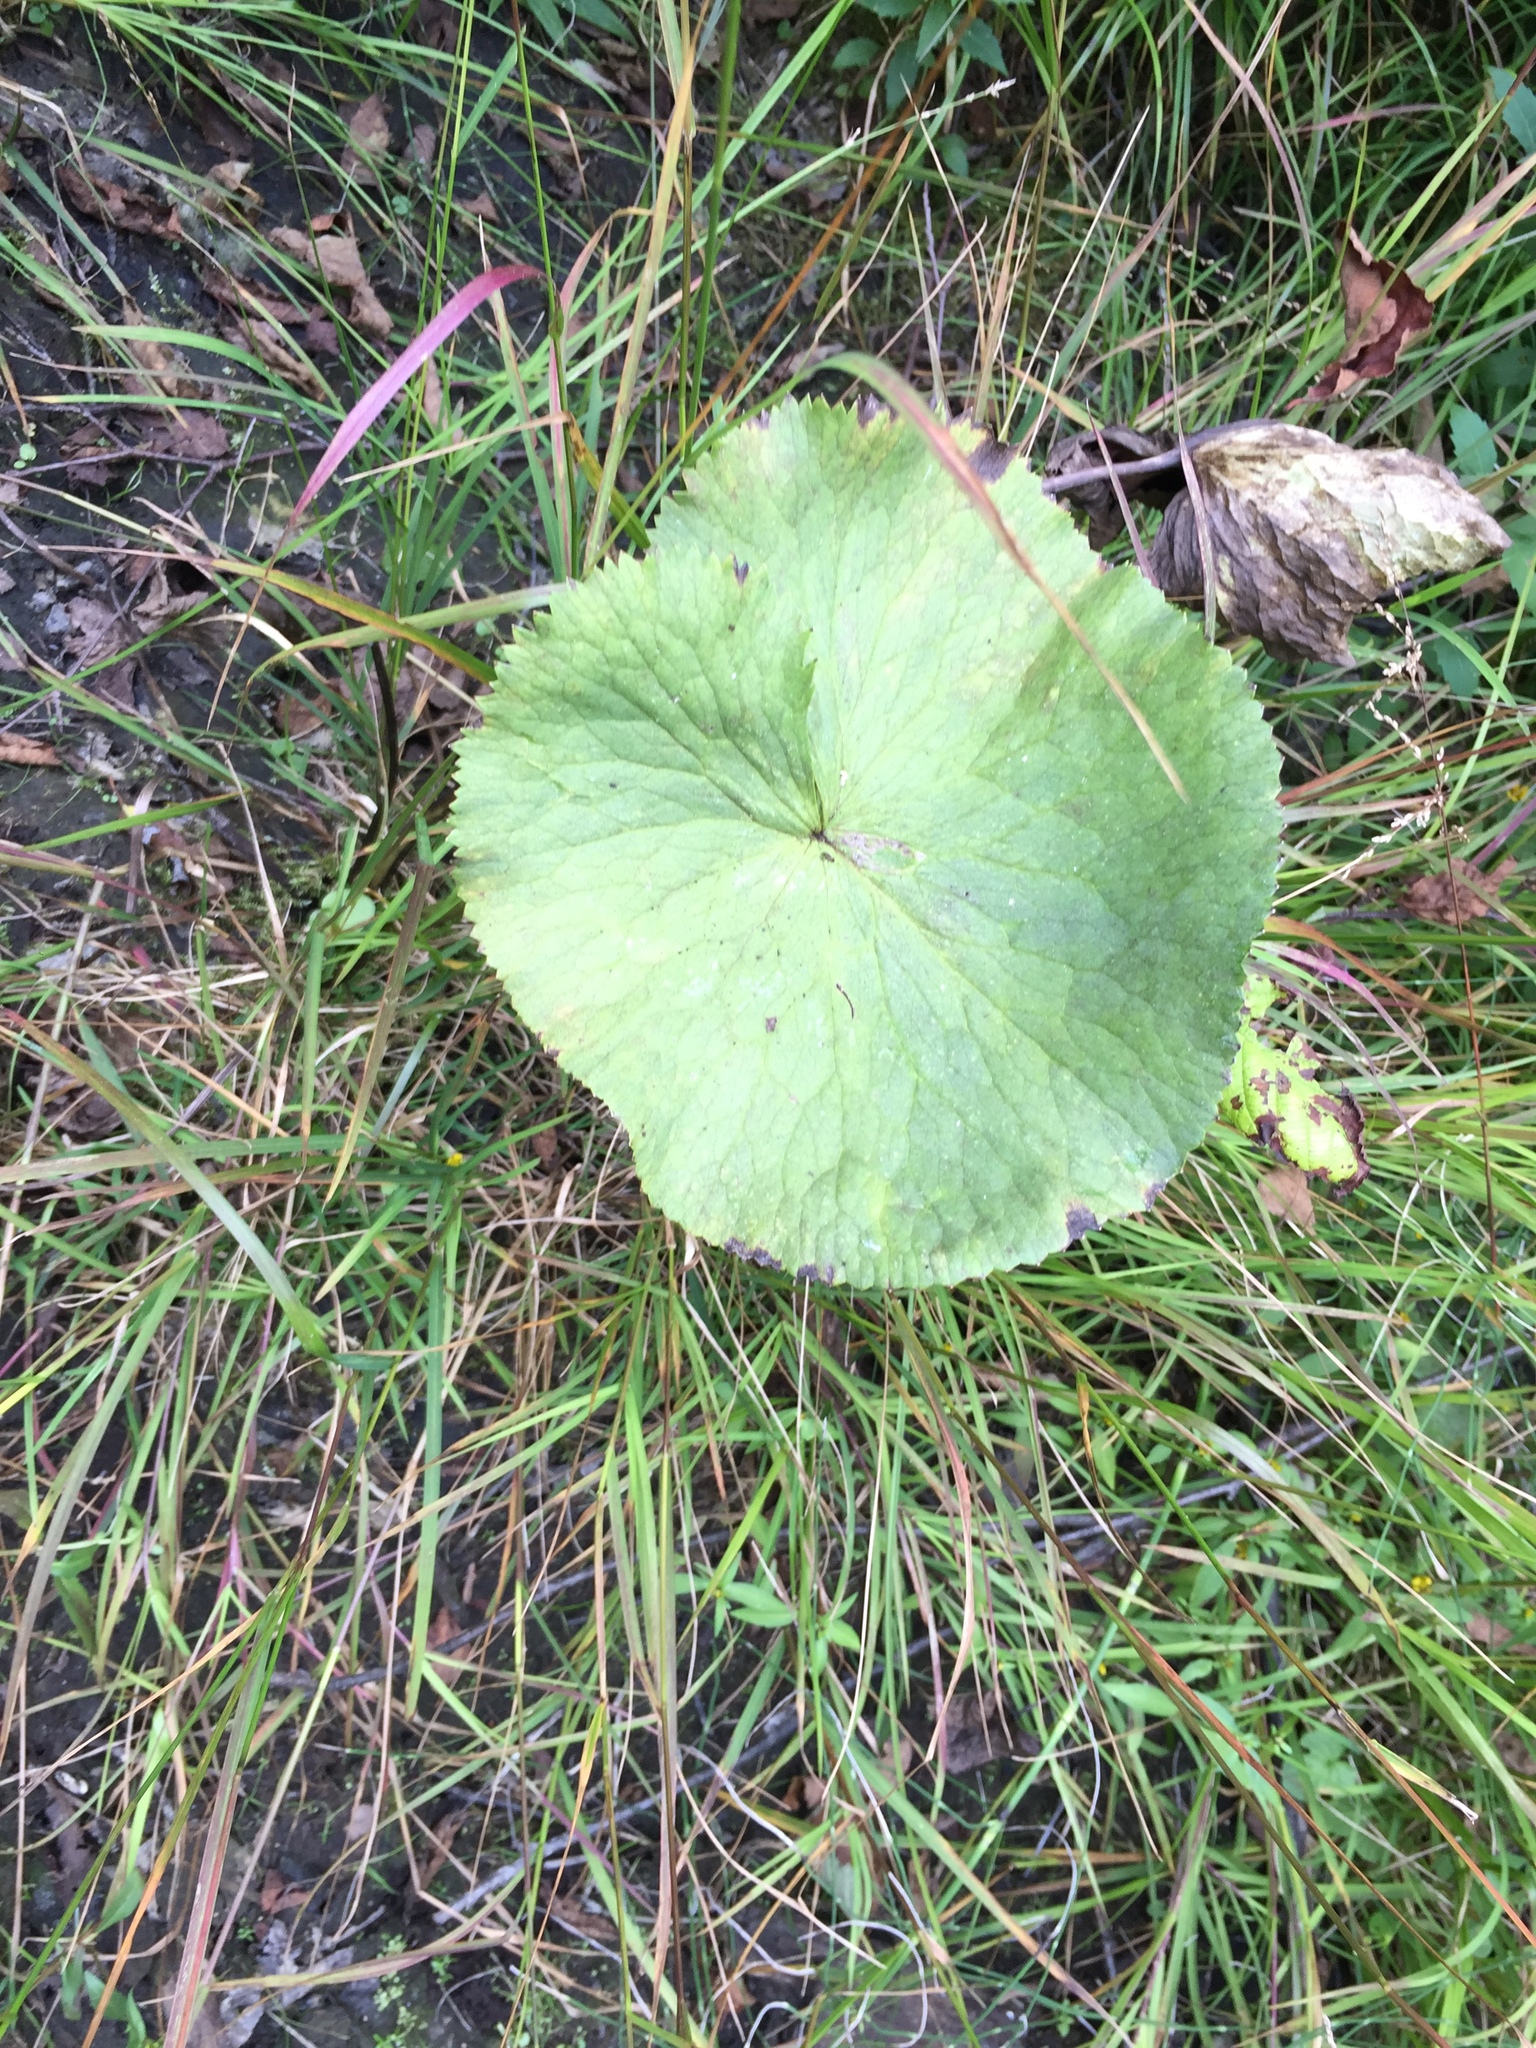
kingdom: Plantae
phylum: Tracheophyta
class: Magnoliopsida
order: Ranunculales
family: Ranunculaceae
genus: Caltha
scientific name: Caltha palustris
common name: Marsh marigold
